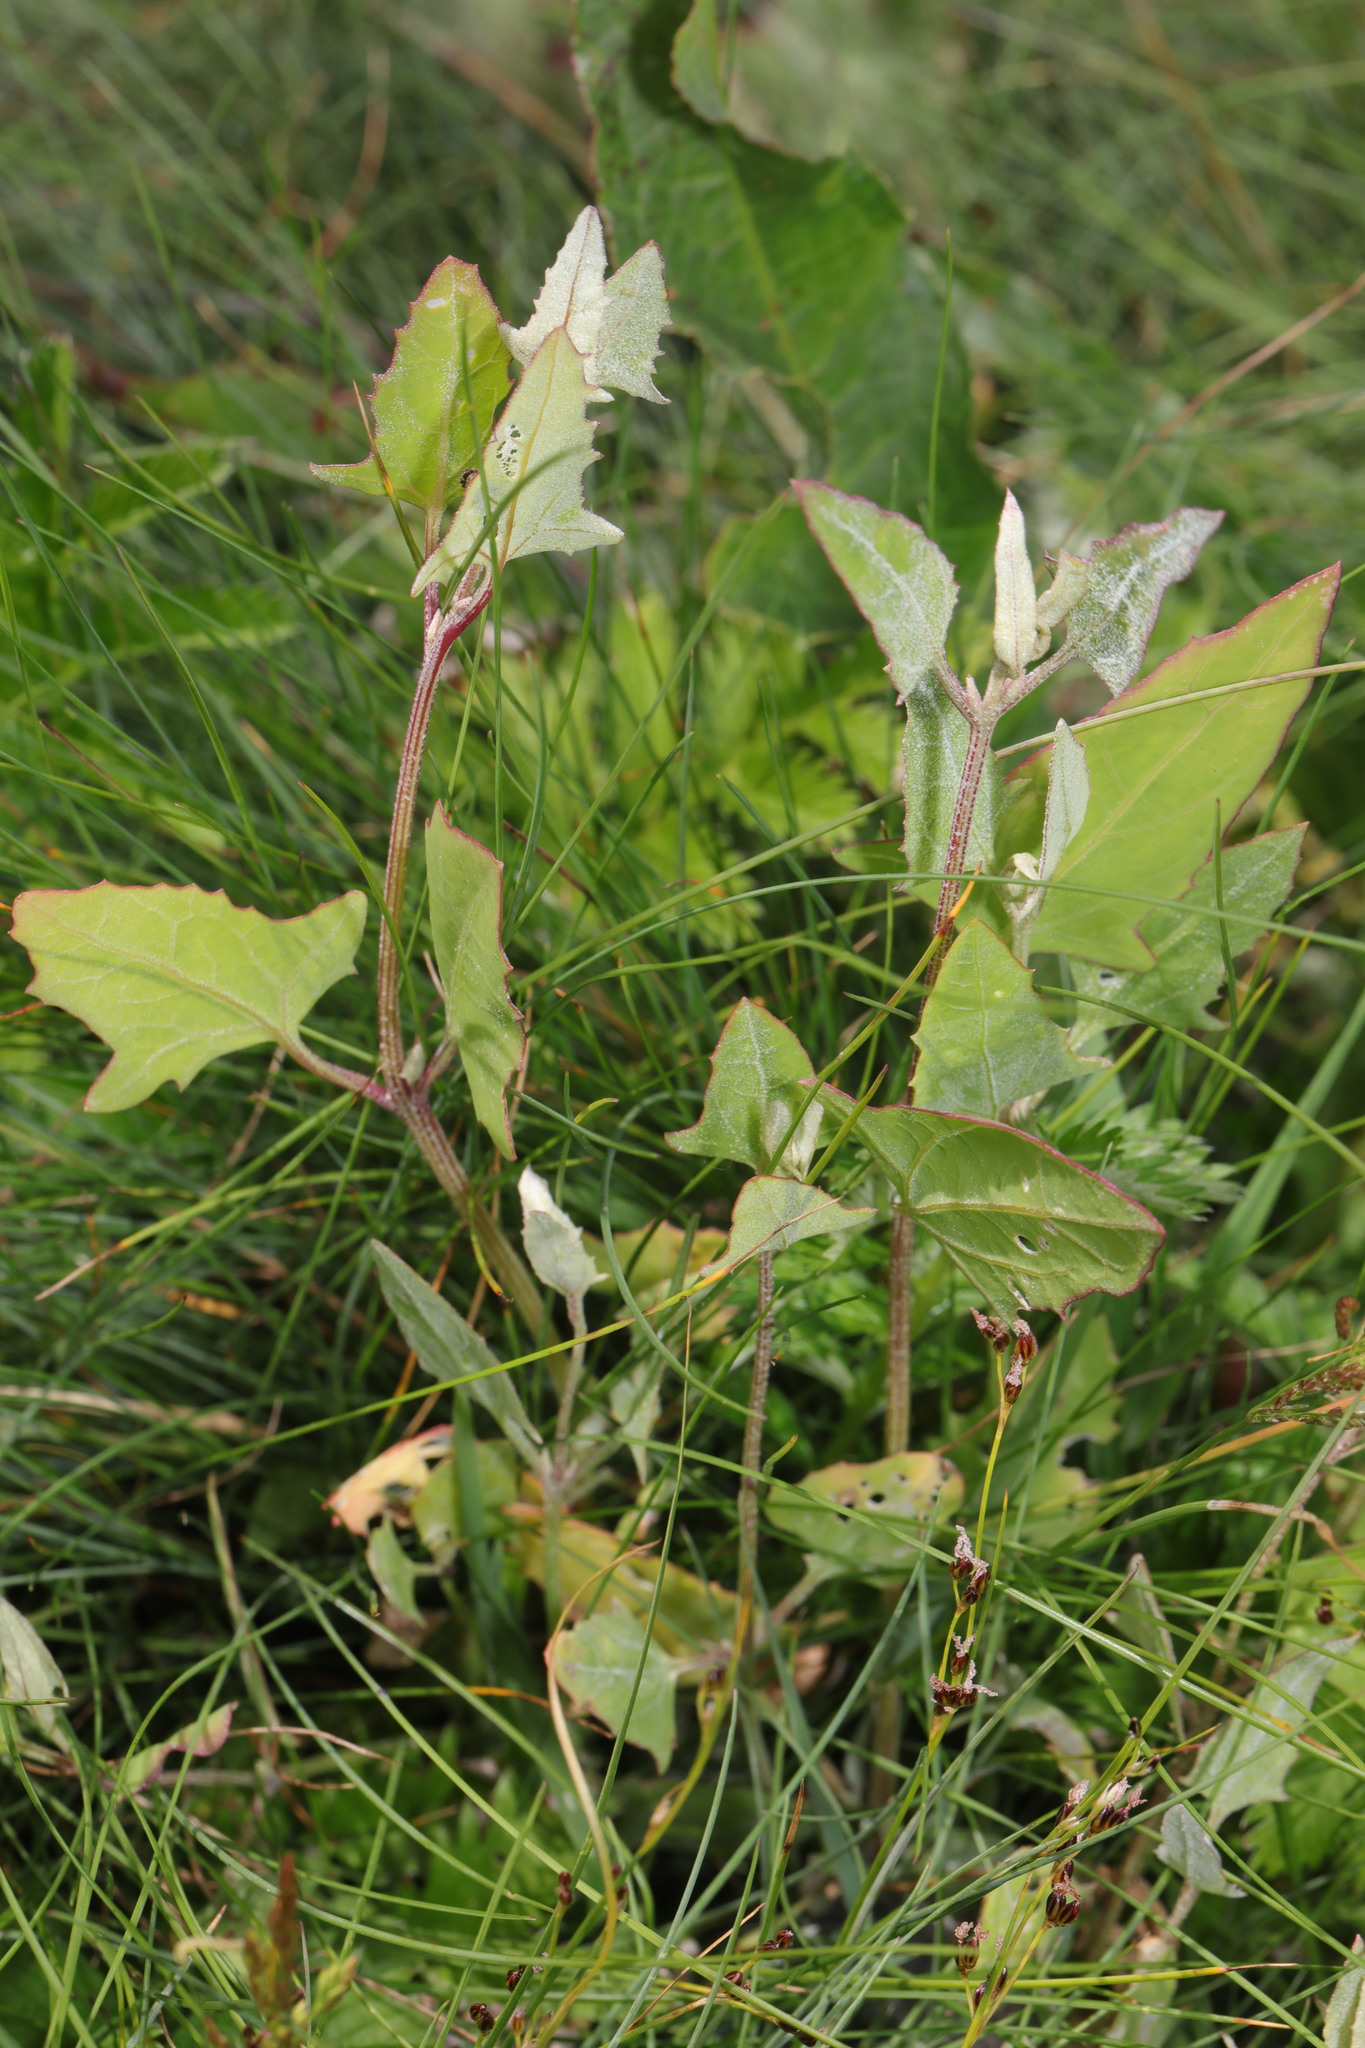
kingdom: Plantae
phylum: Tracheophyta
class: Magnoliopsida
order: Caryophyllales
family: Amaranthaceae
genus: Atriplex
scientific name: Atriplex prostrata
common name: Spear-leaved orache
